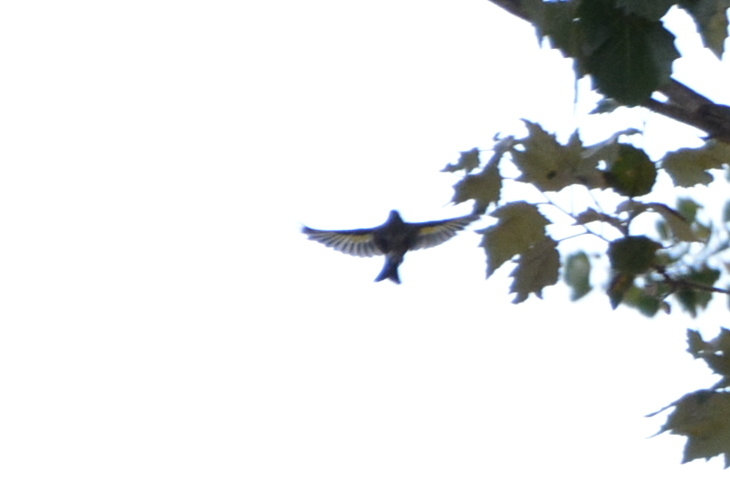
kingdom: Animalia
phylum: Chordata
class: Aves
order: Passeriformes
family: Fringillidae
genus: Carduelis
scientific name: Carduelis carduelis
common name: European goldfinch
